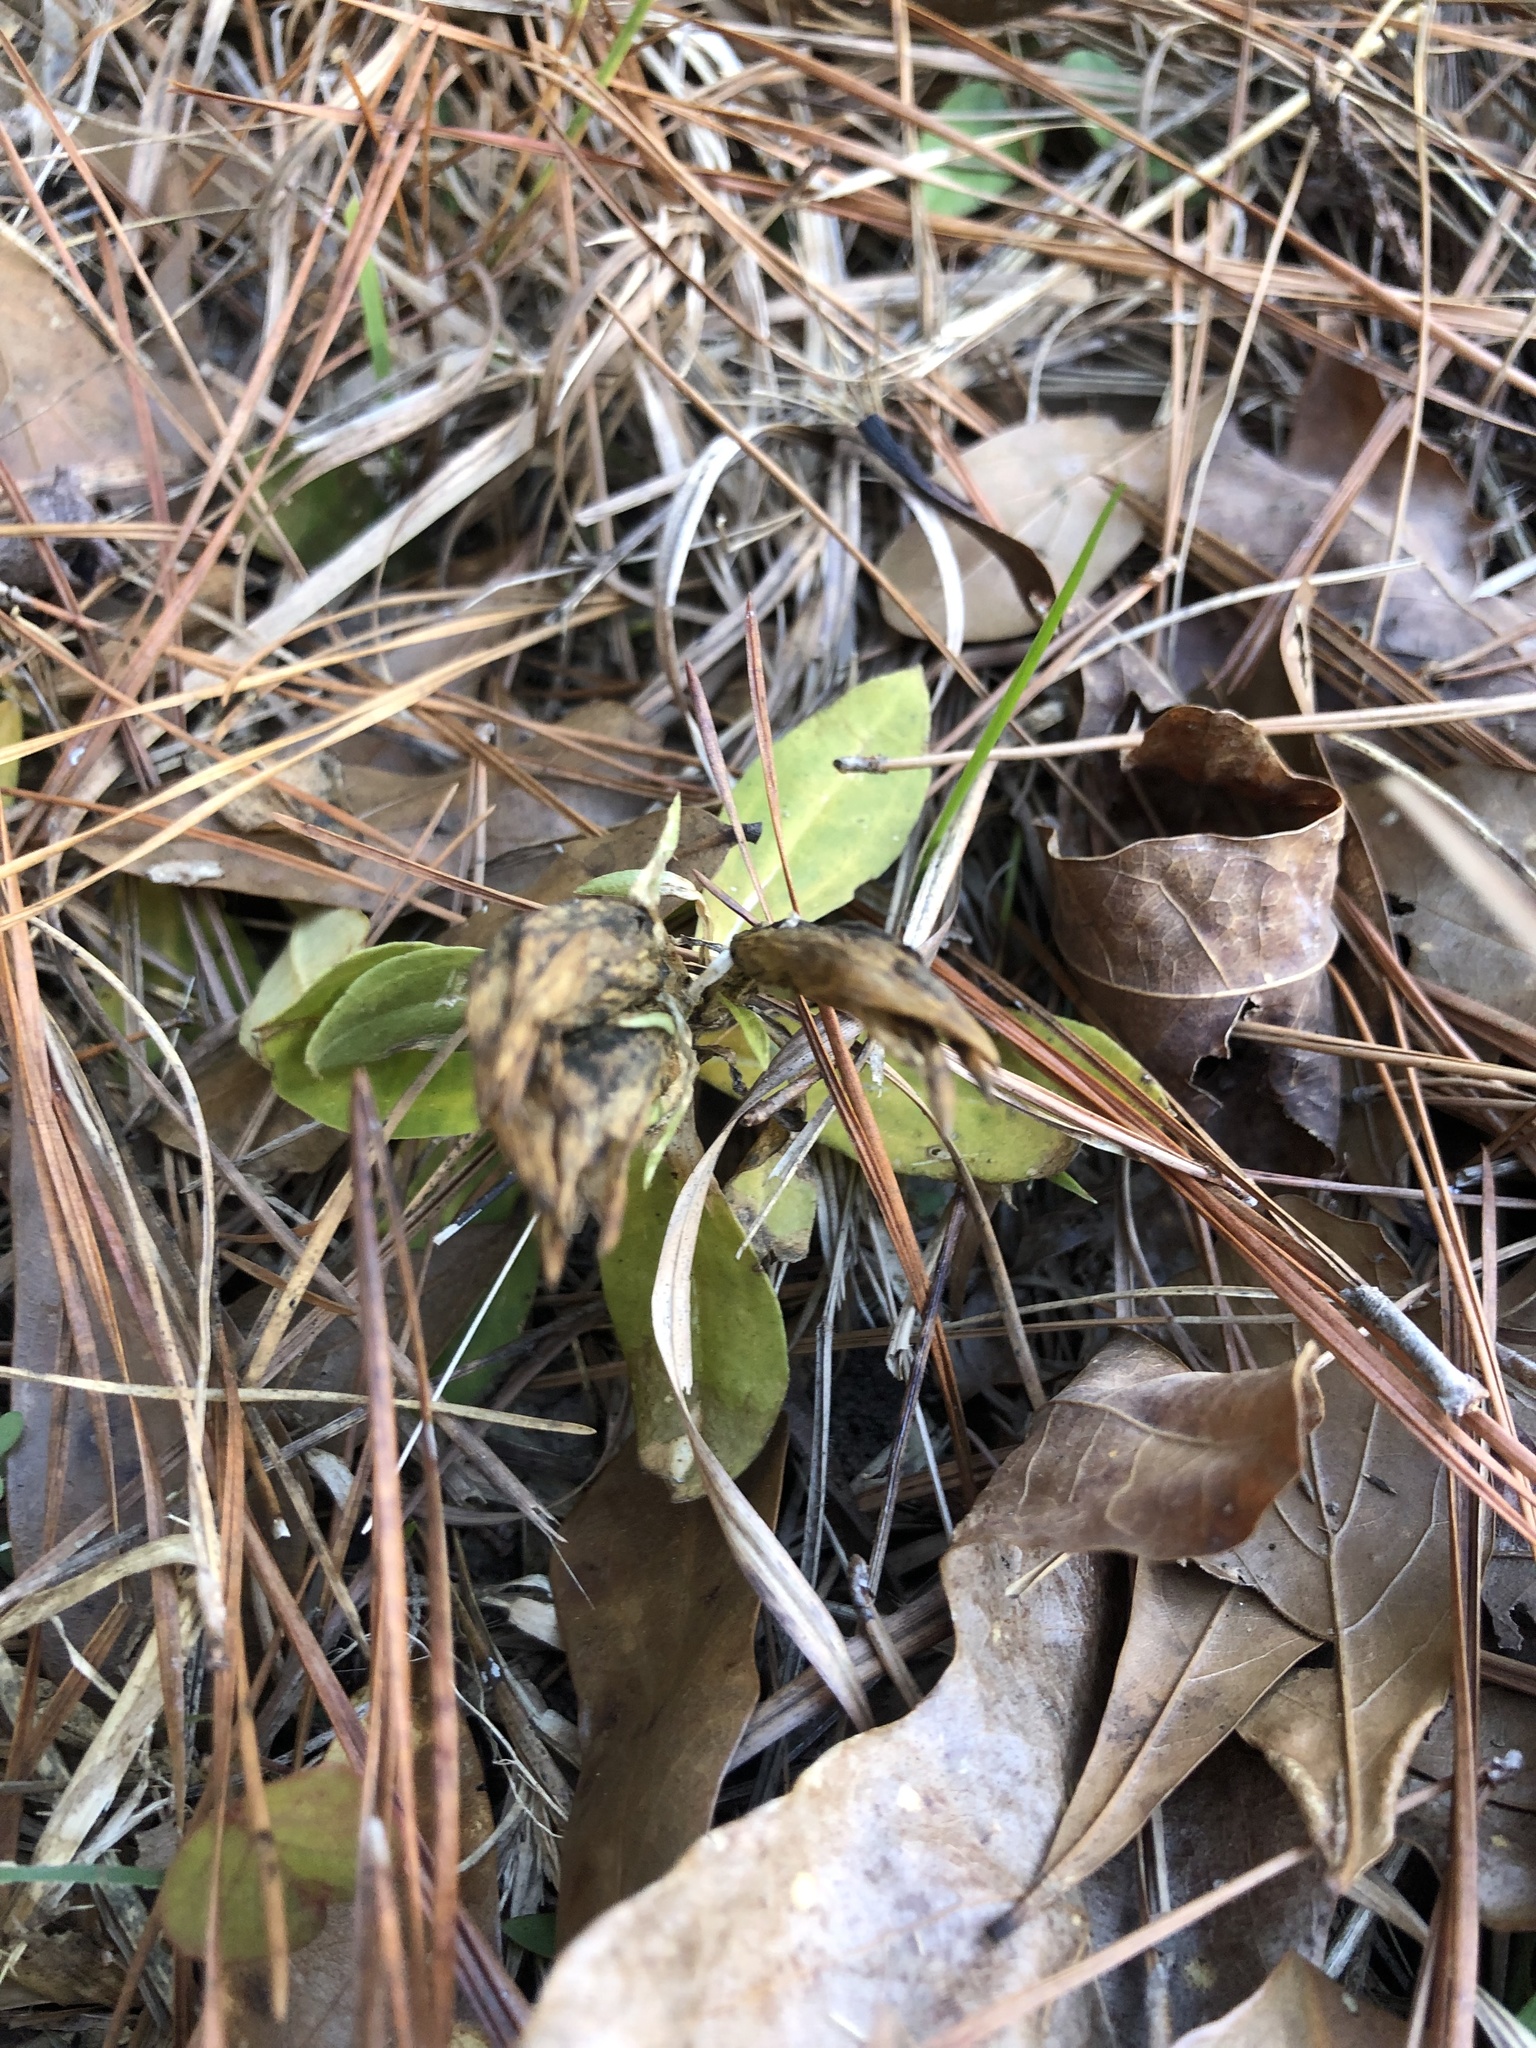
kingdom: Plantae
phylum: Tracheophyta
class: Magnoliopsida
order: Gentianales
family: Gentianaceae
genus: Gentiana
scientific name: Gentiana villosa
